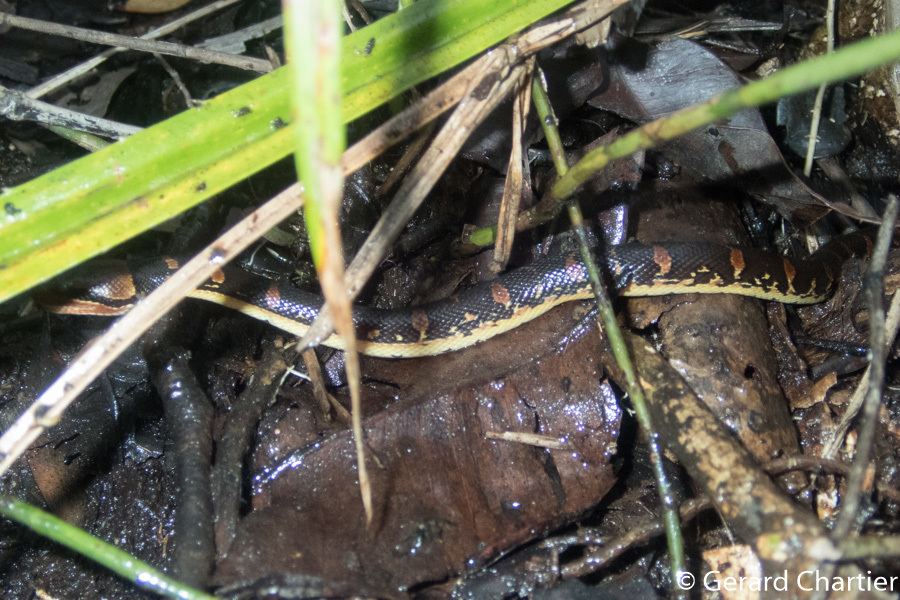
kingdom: Animalia
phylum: Chordata
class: Squamata
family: Homalopsidae
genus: Homalopsis
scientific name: Homalopsis mereljcoxi
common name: Jack’s water snake
